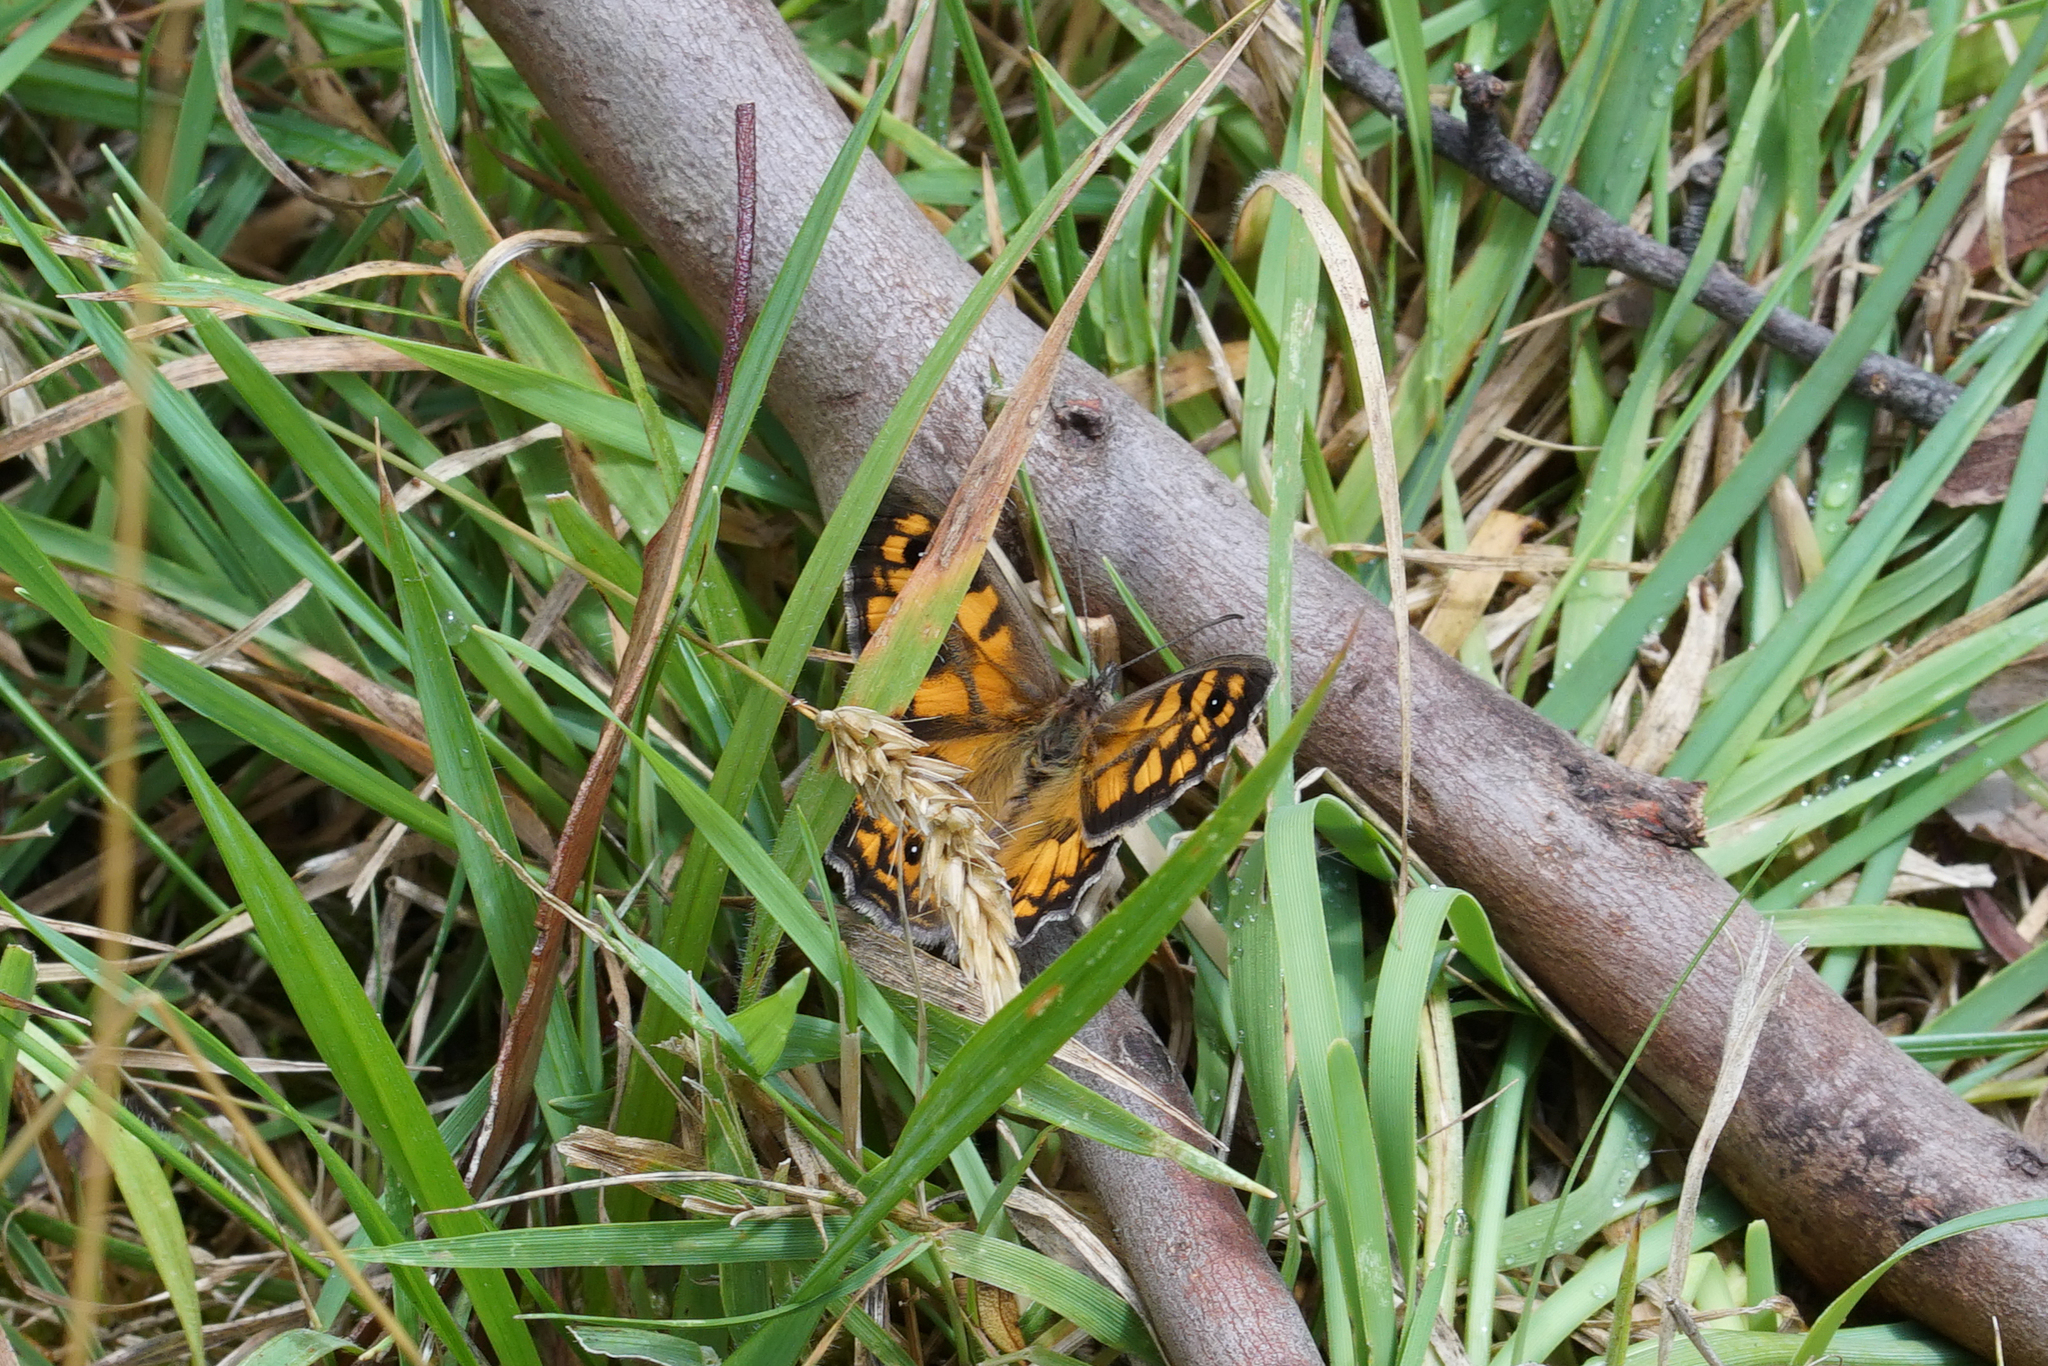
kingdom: Animalia
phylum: Arthropoda
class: Insecta
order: Lepidoptera
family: Nymphalidae
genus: Geitoneura
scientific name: Geitoneura klugii
